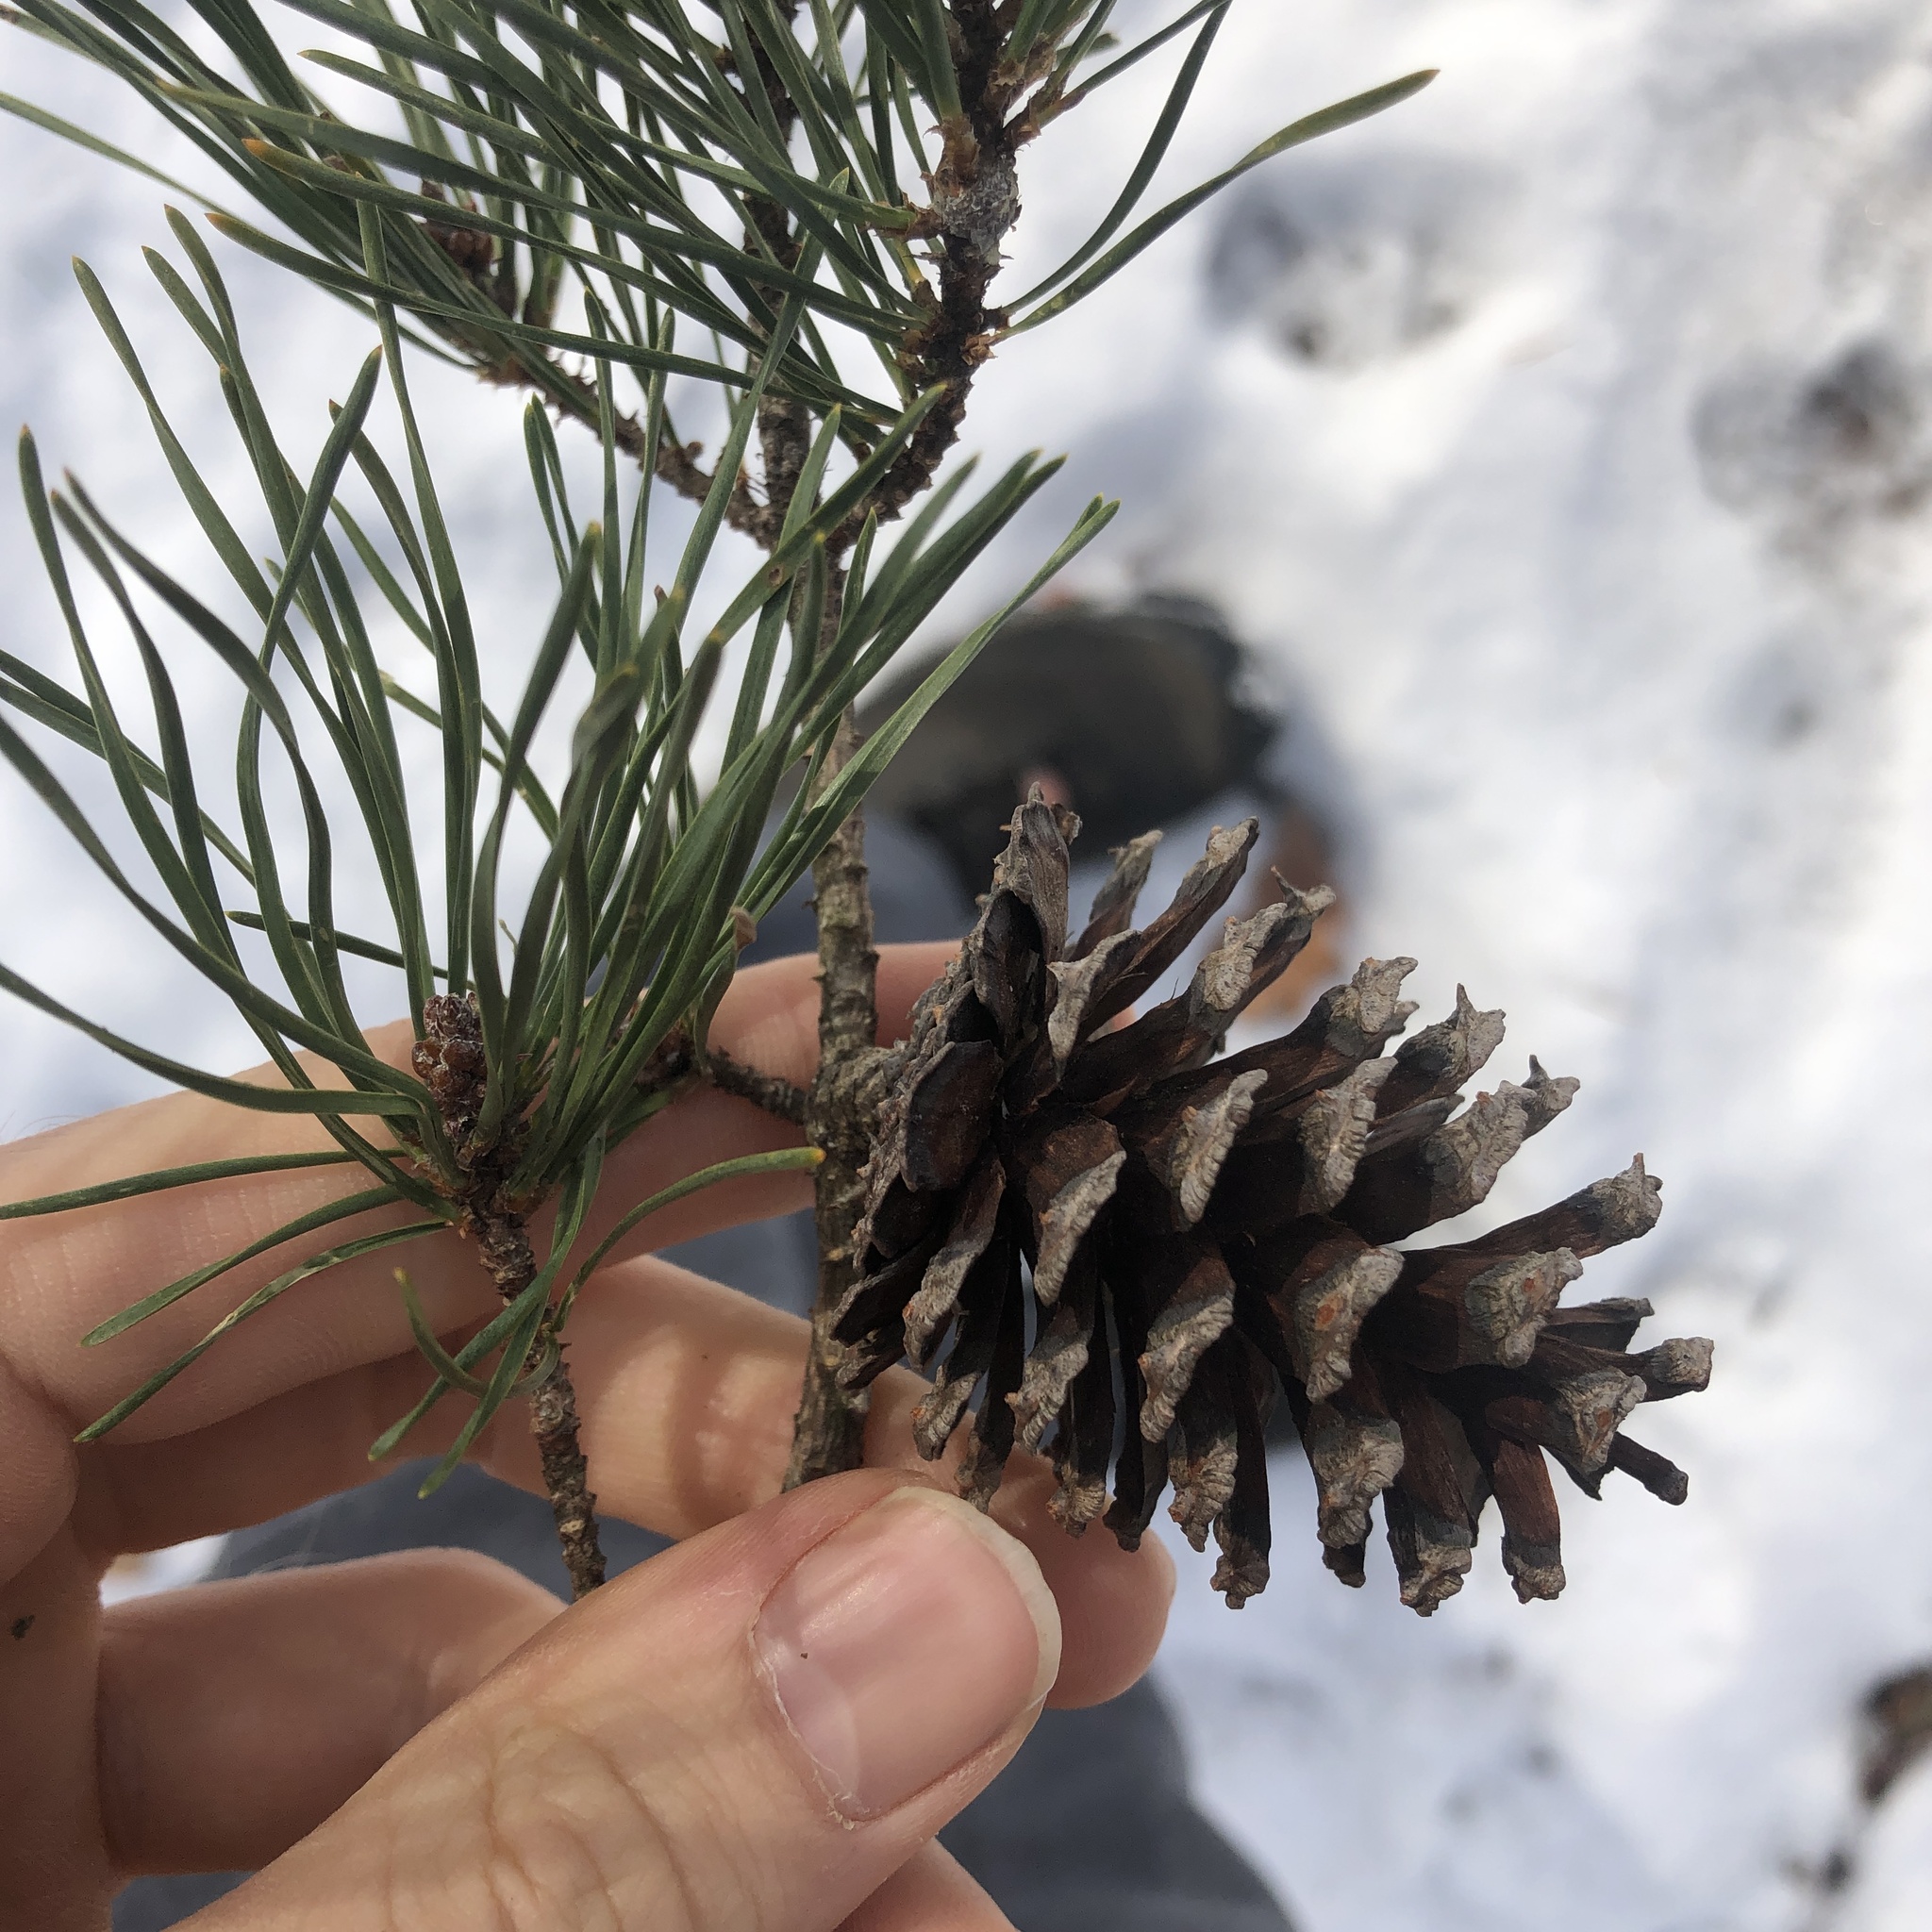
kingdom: Plantae
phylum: Tracheophyta
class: Pinopsida
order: Pinales
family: Pinaceae
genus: Pinus
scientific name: Pinus virginiana
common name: Scrub pine
